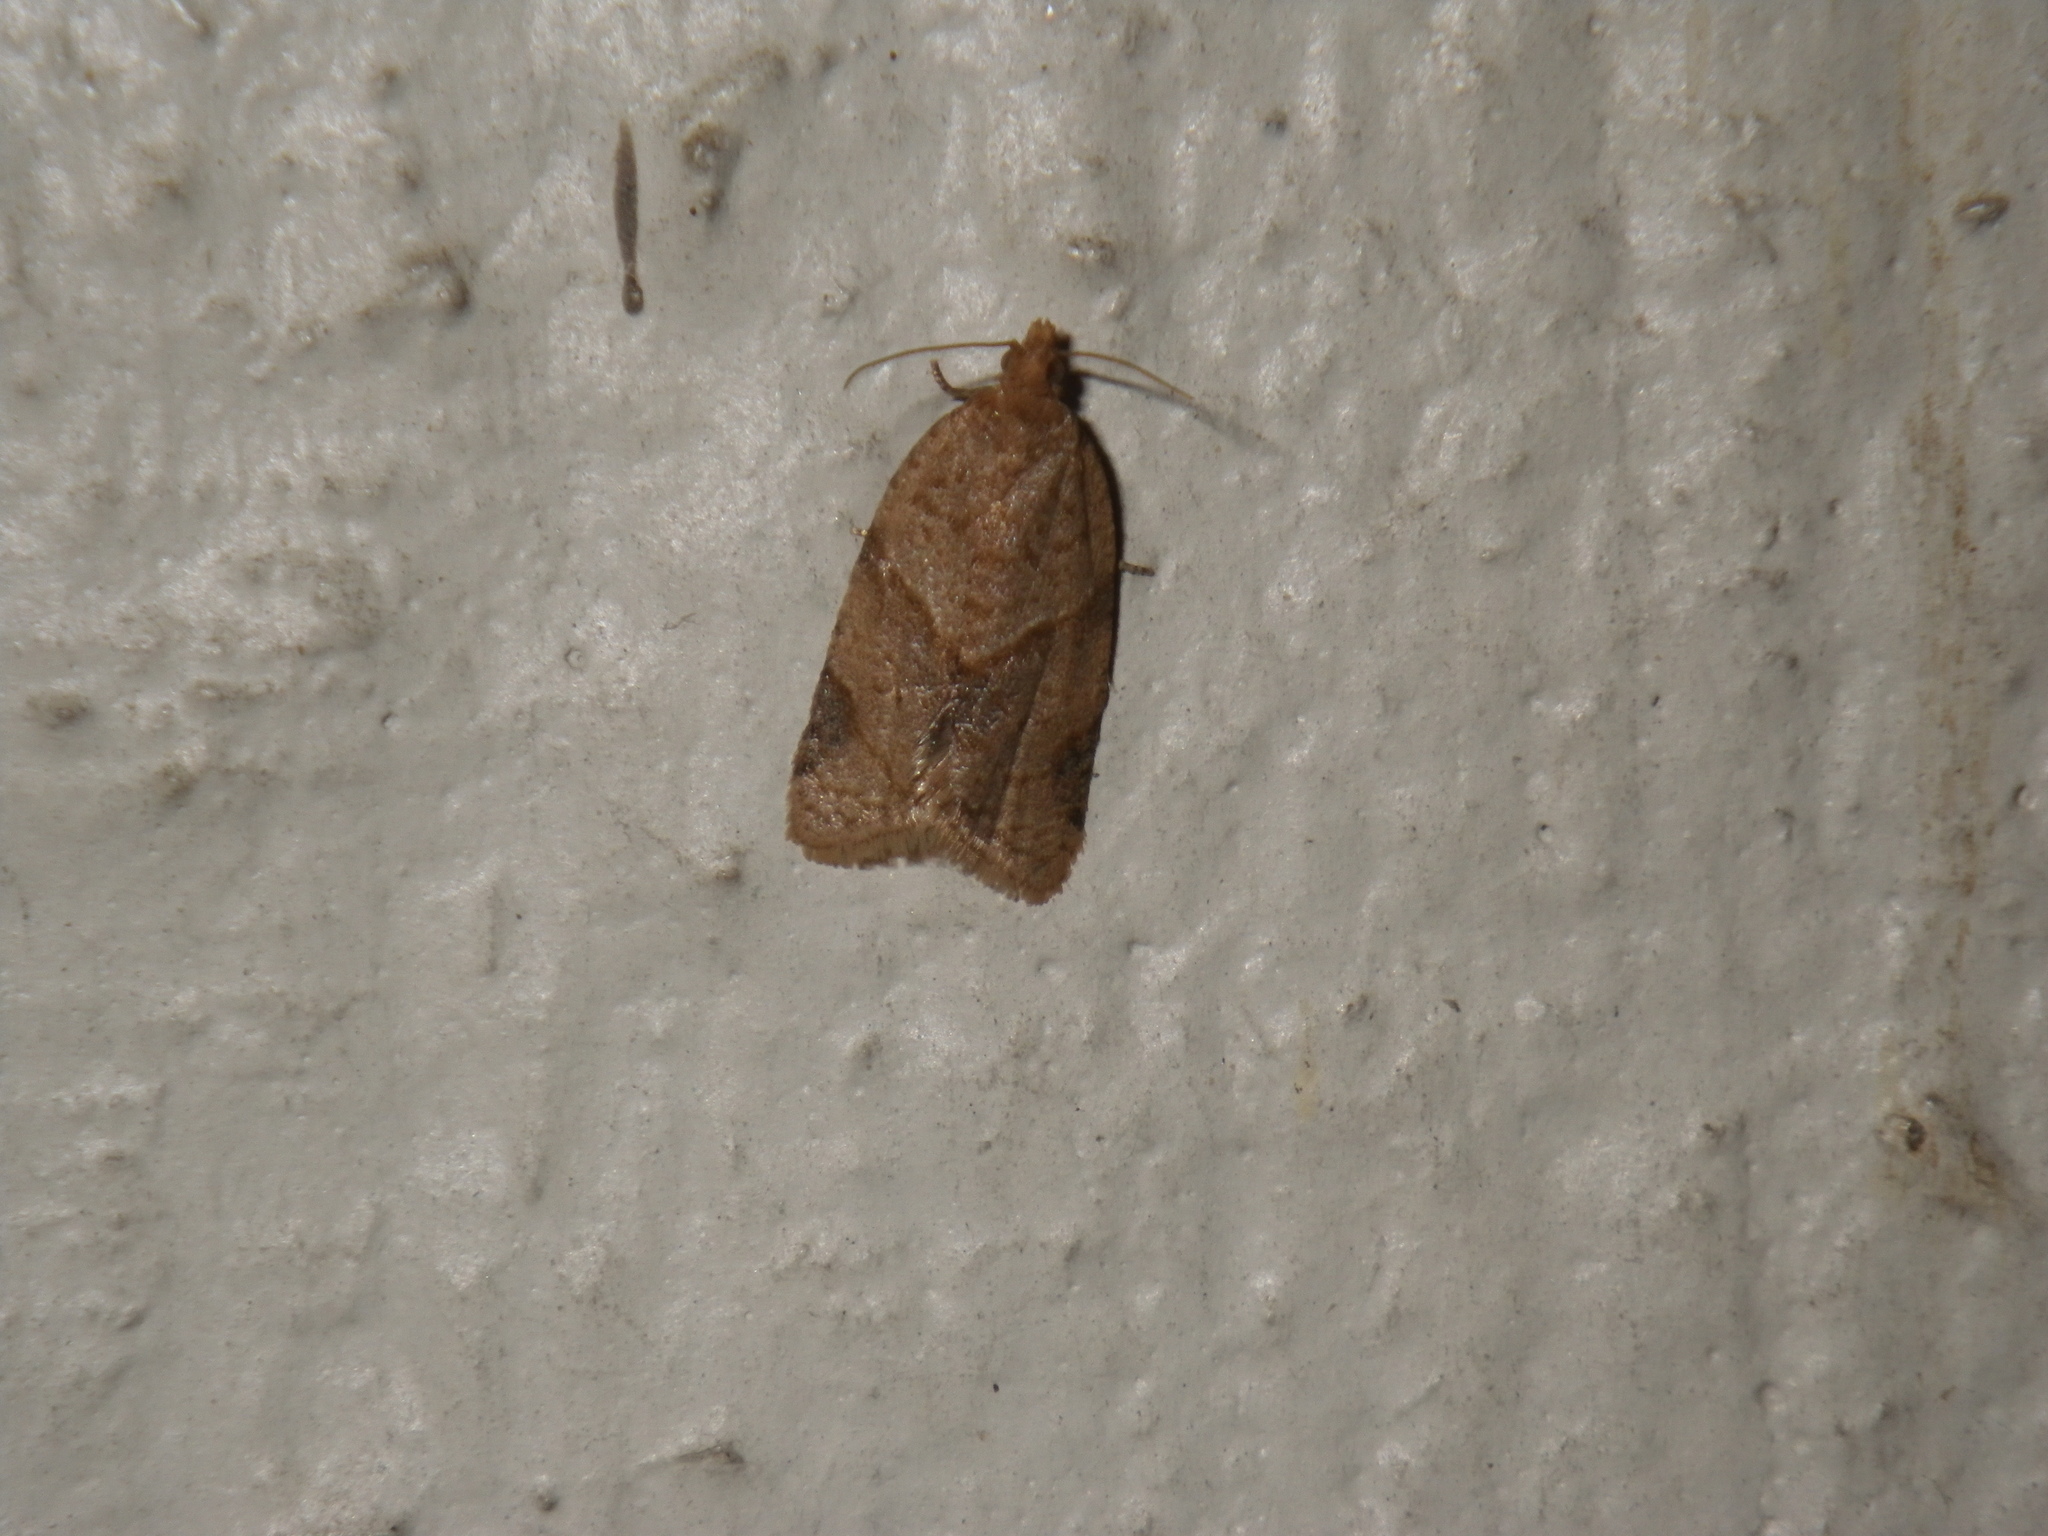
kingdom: Animalia
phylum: Arthropoda
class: Insecta
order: Lepidoptera
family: Tortricidae
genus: Clepsis
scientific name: Clepsis peritana
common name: Garden tortrix
